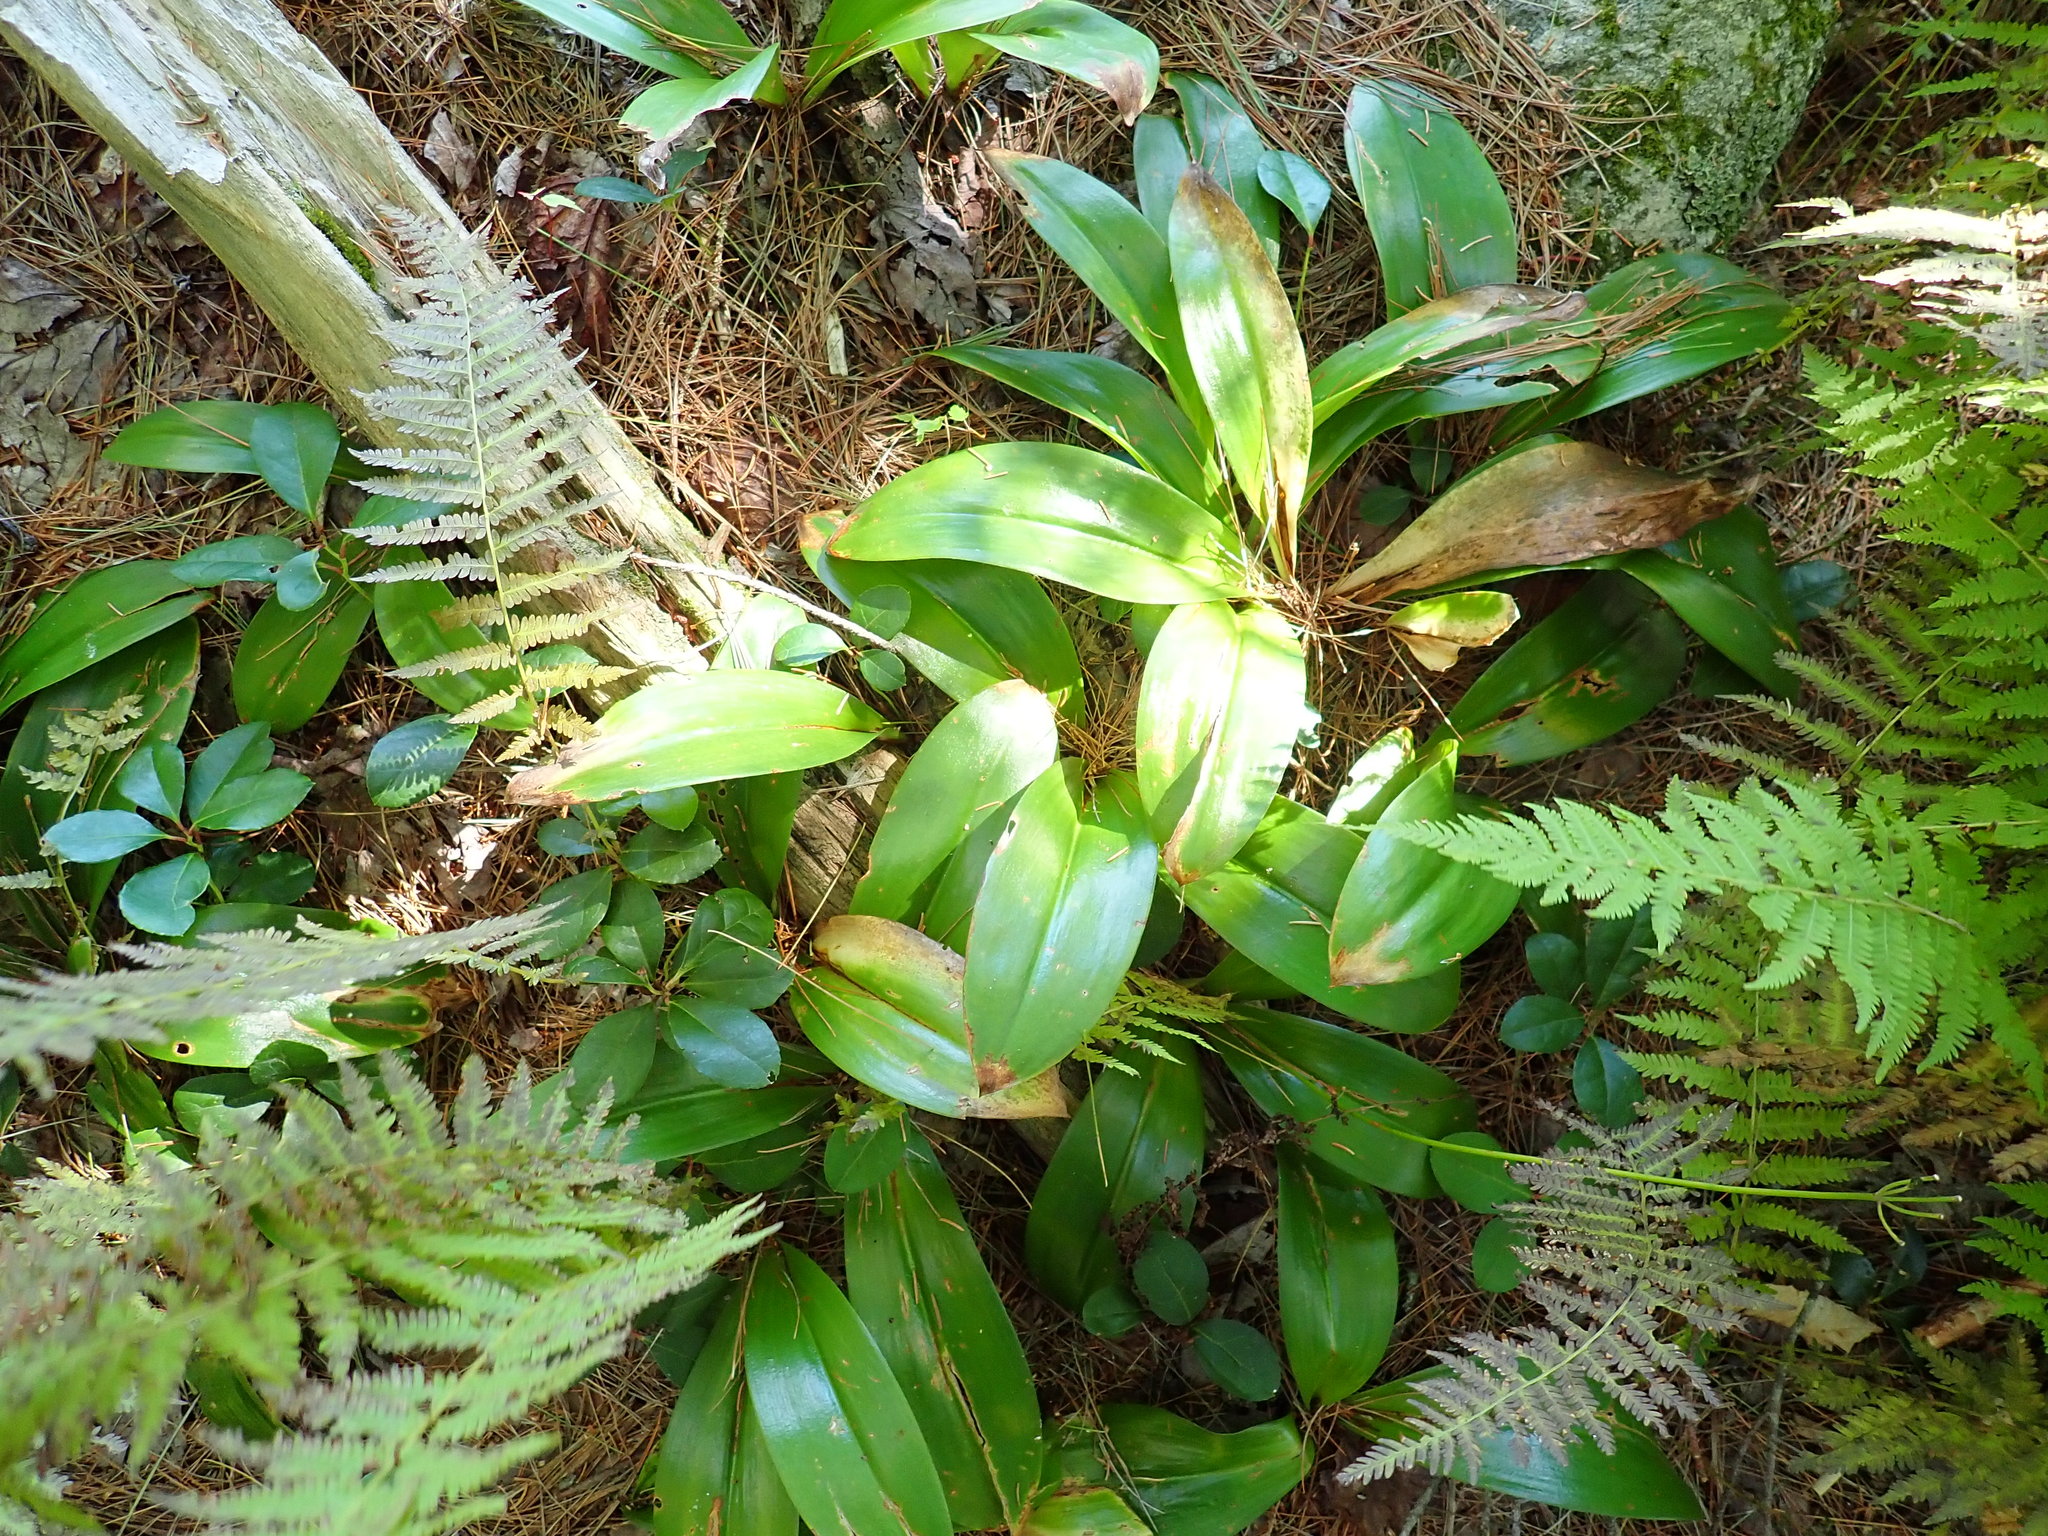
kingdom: Plantae
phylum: Tracheophyta
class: Liliopsida
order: Liliales
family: Liliaceae
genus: Clintonia
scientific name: Clintonia borealis
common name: Yellow clintonia
